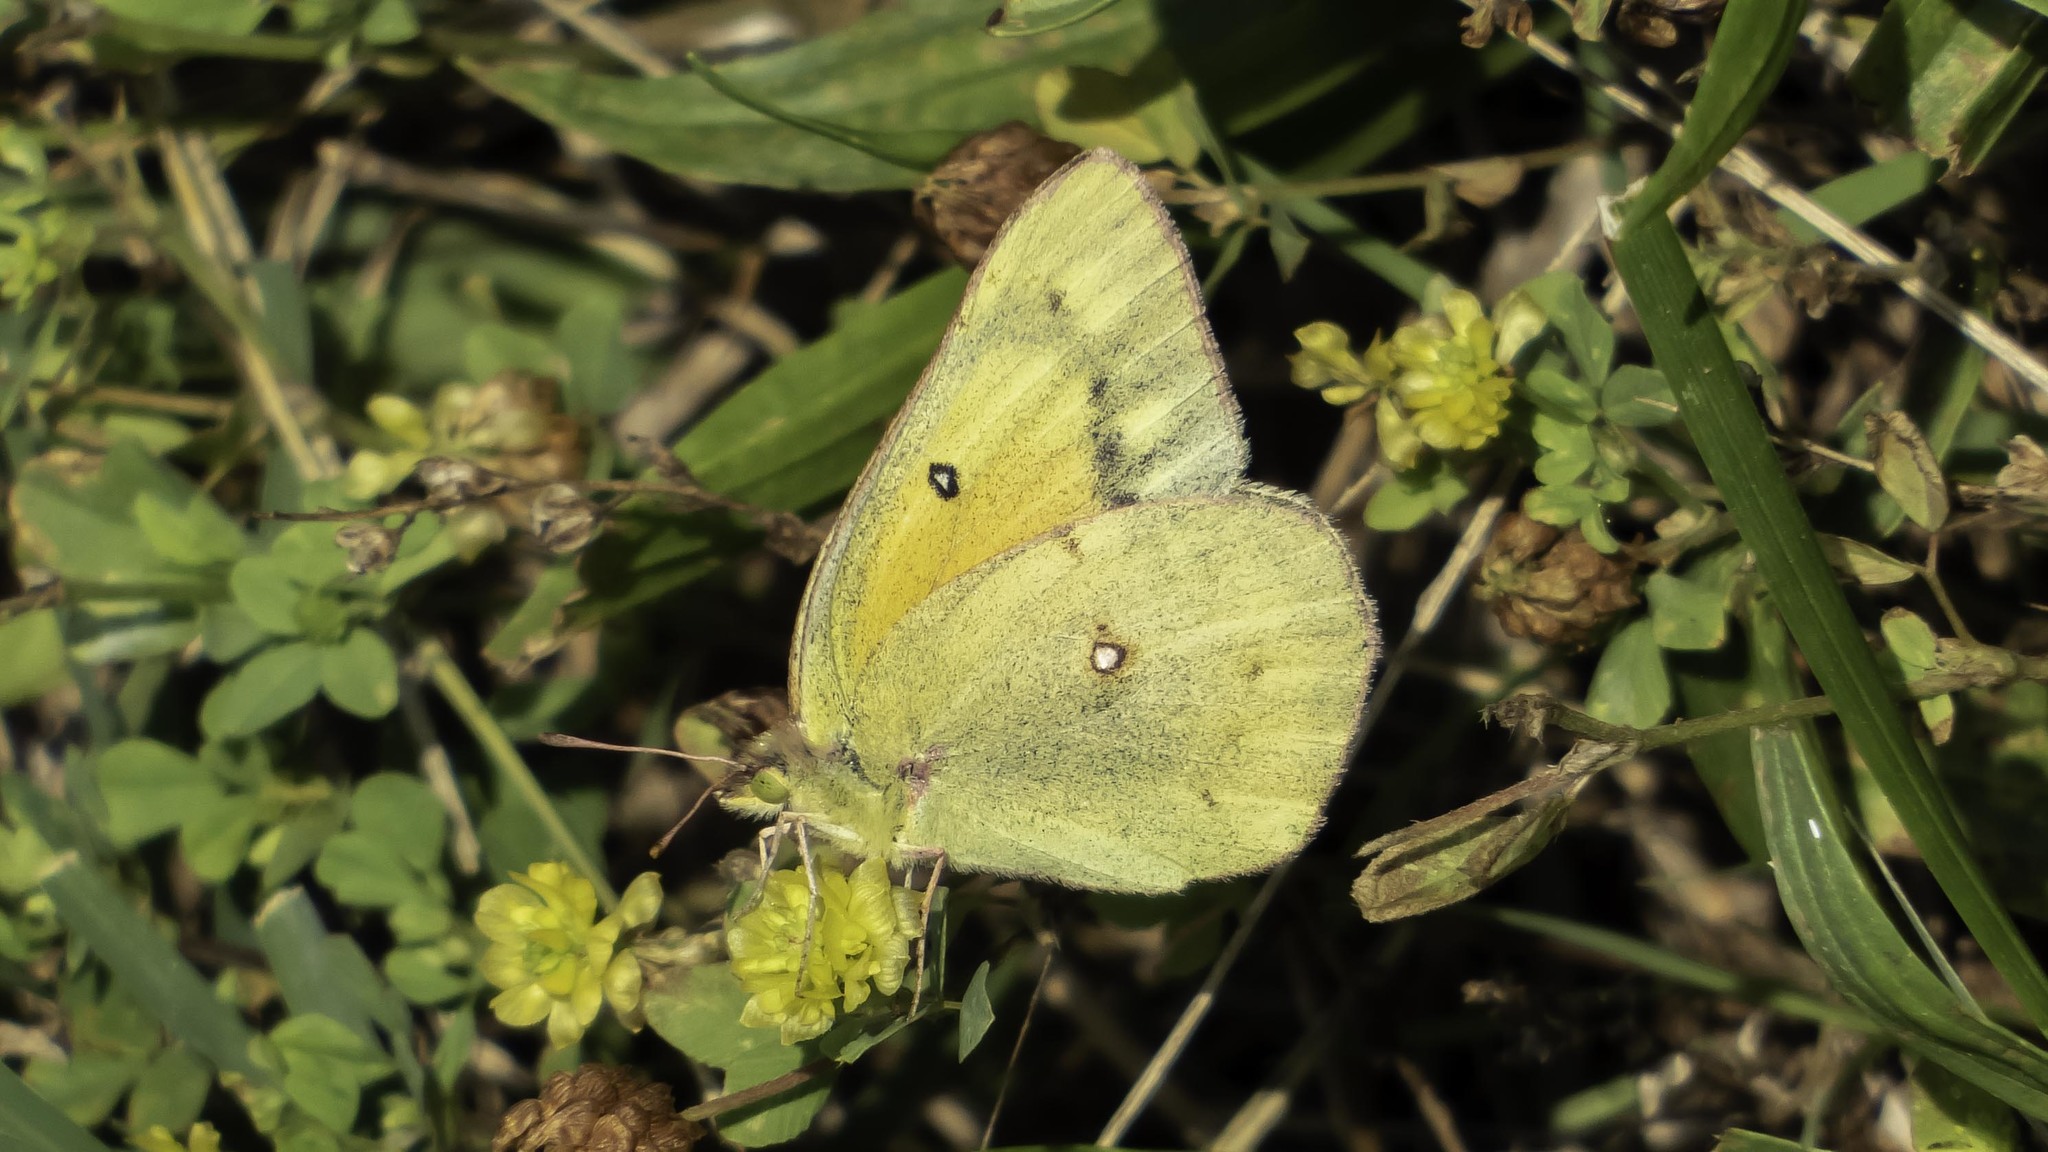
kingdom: Animalia
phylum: Arthropoda
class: Insecta
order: Lepidoptera
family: Pieridae
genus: Colias
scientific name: Colias eurytheme
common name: Alfalfa butterfly
